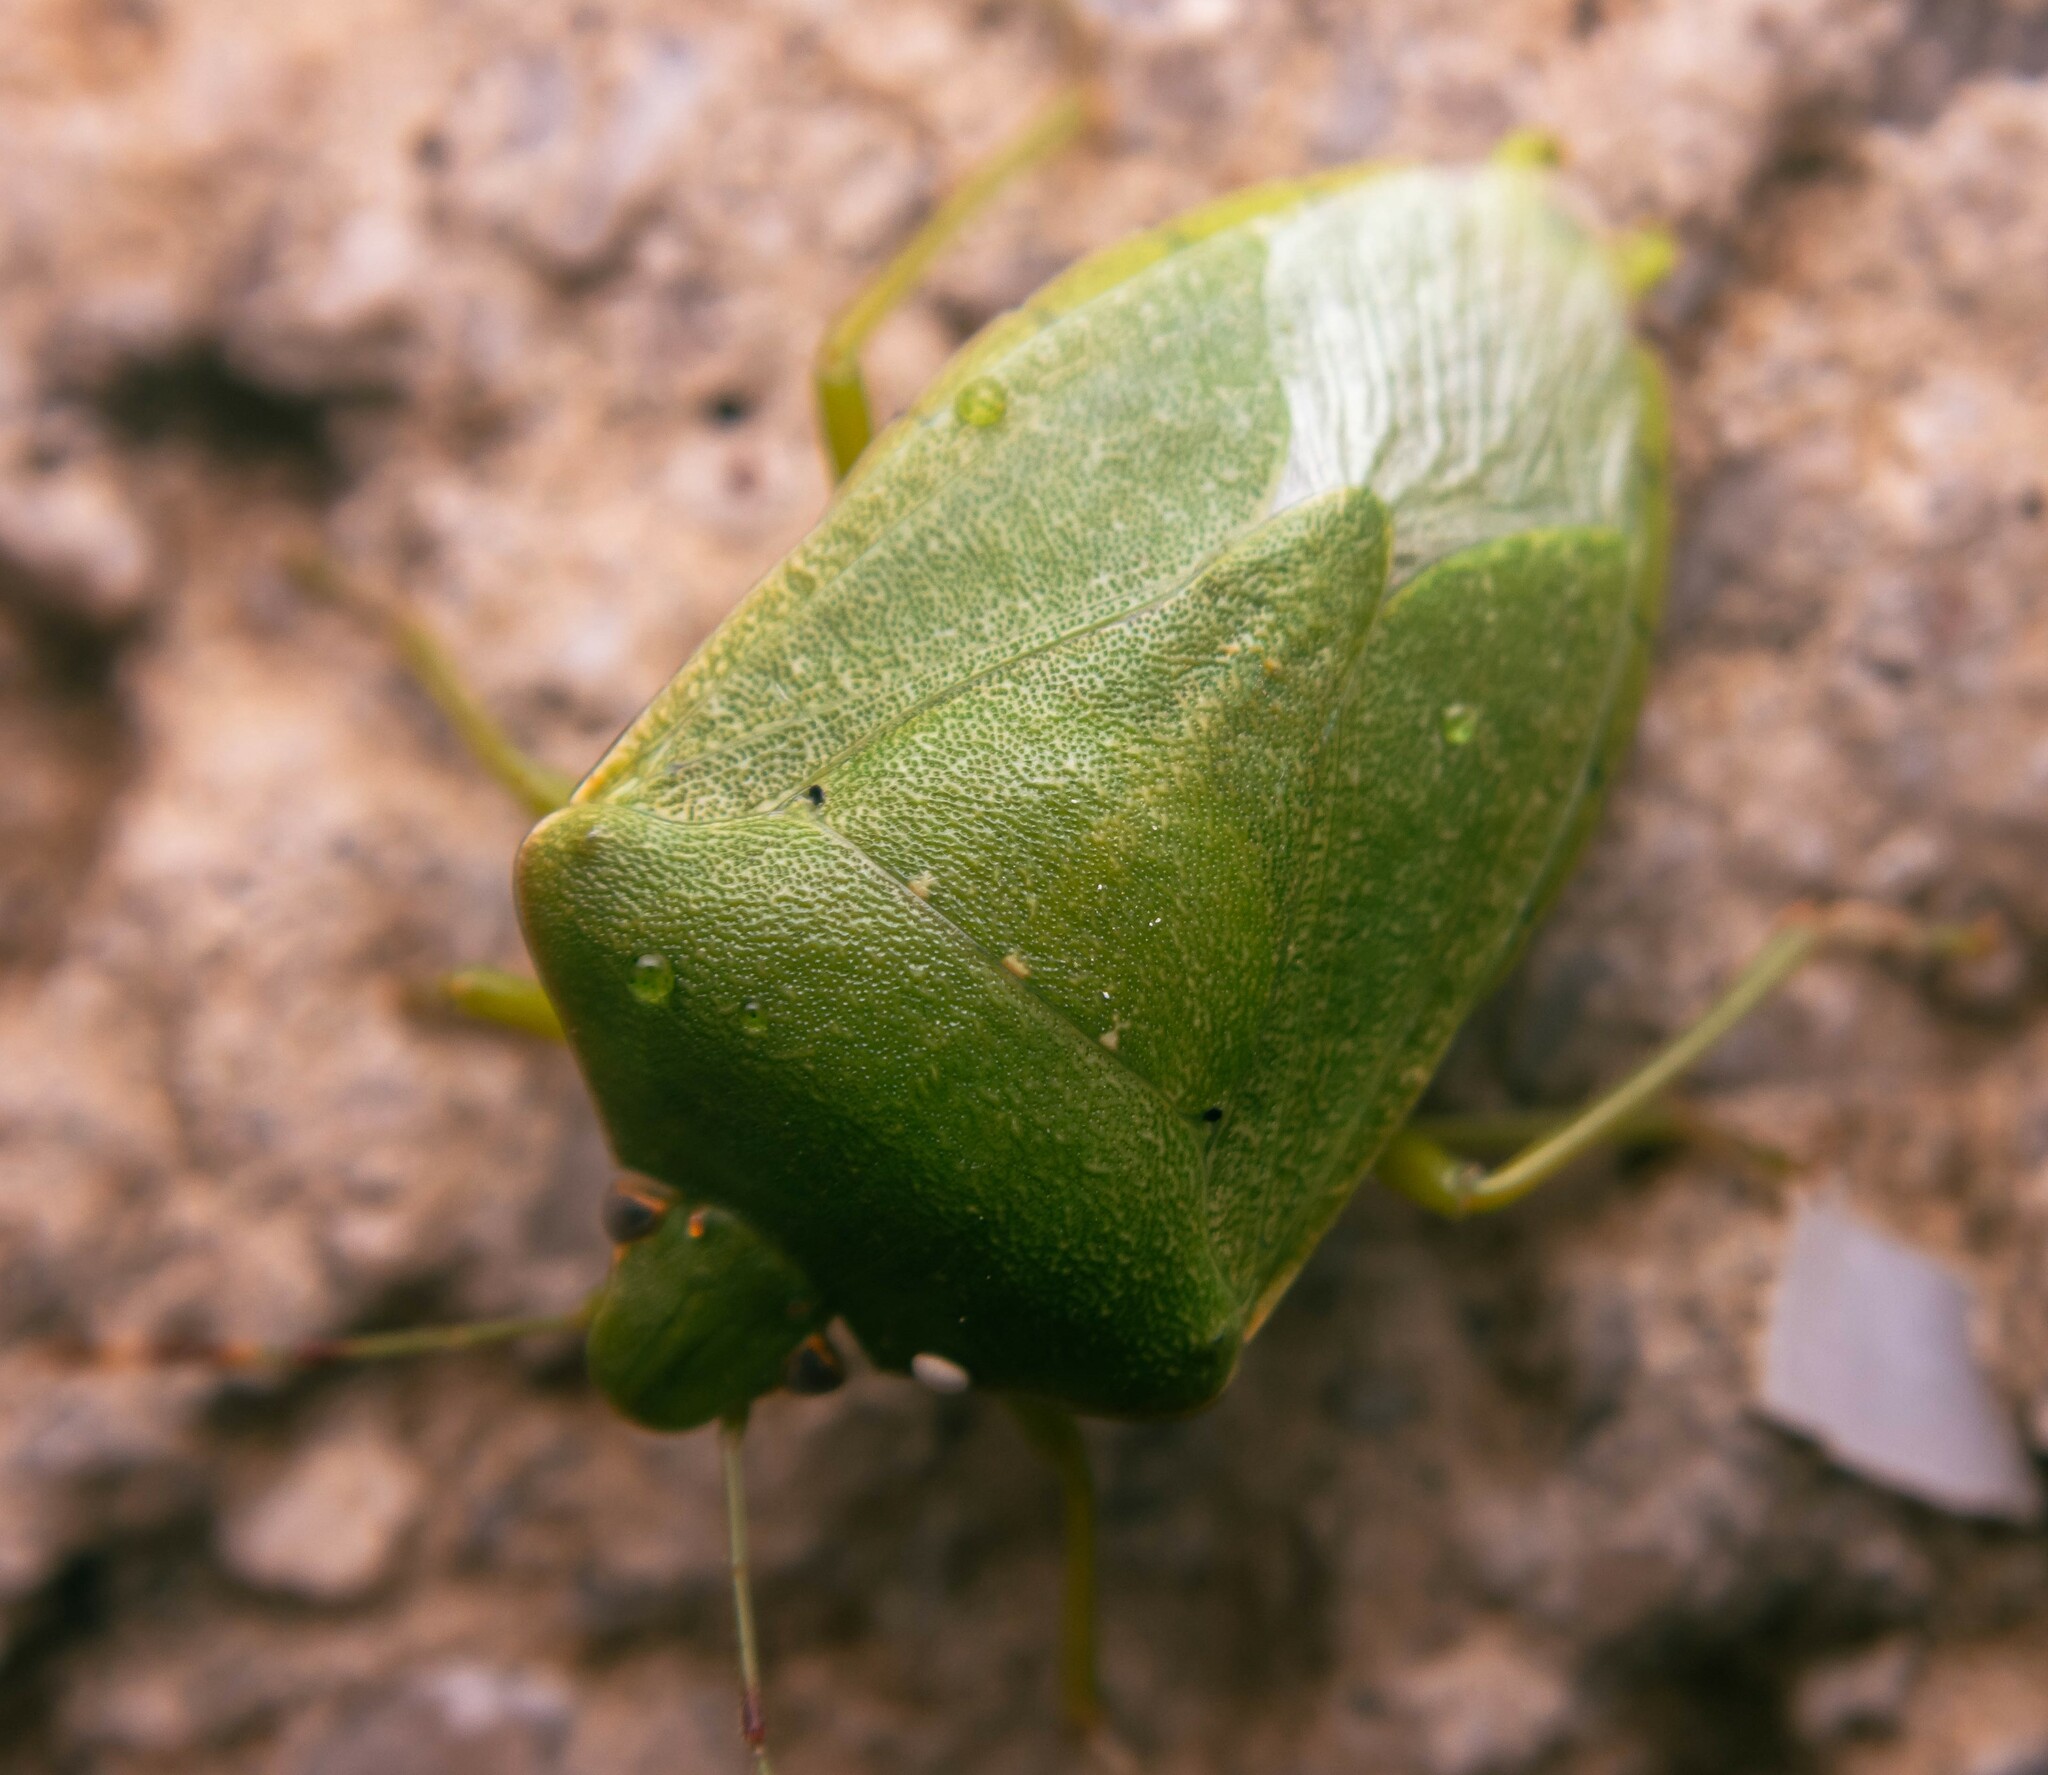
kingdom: Animalia
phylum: Arthropoda
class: Insecta
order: Hemiptera
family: Pentatomidae
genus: Nezara
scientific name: Nezara viridula
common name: Southern green stink bug
